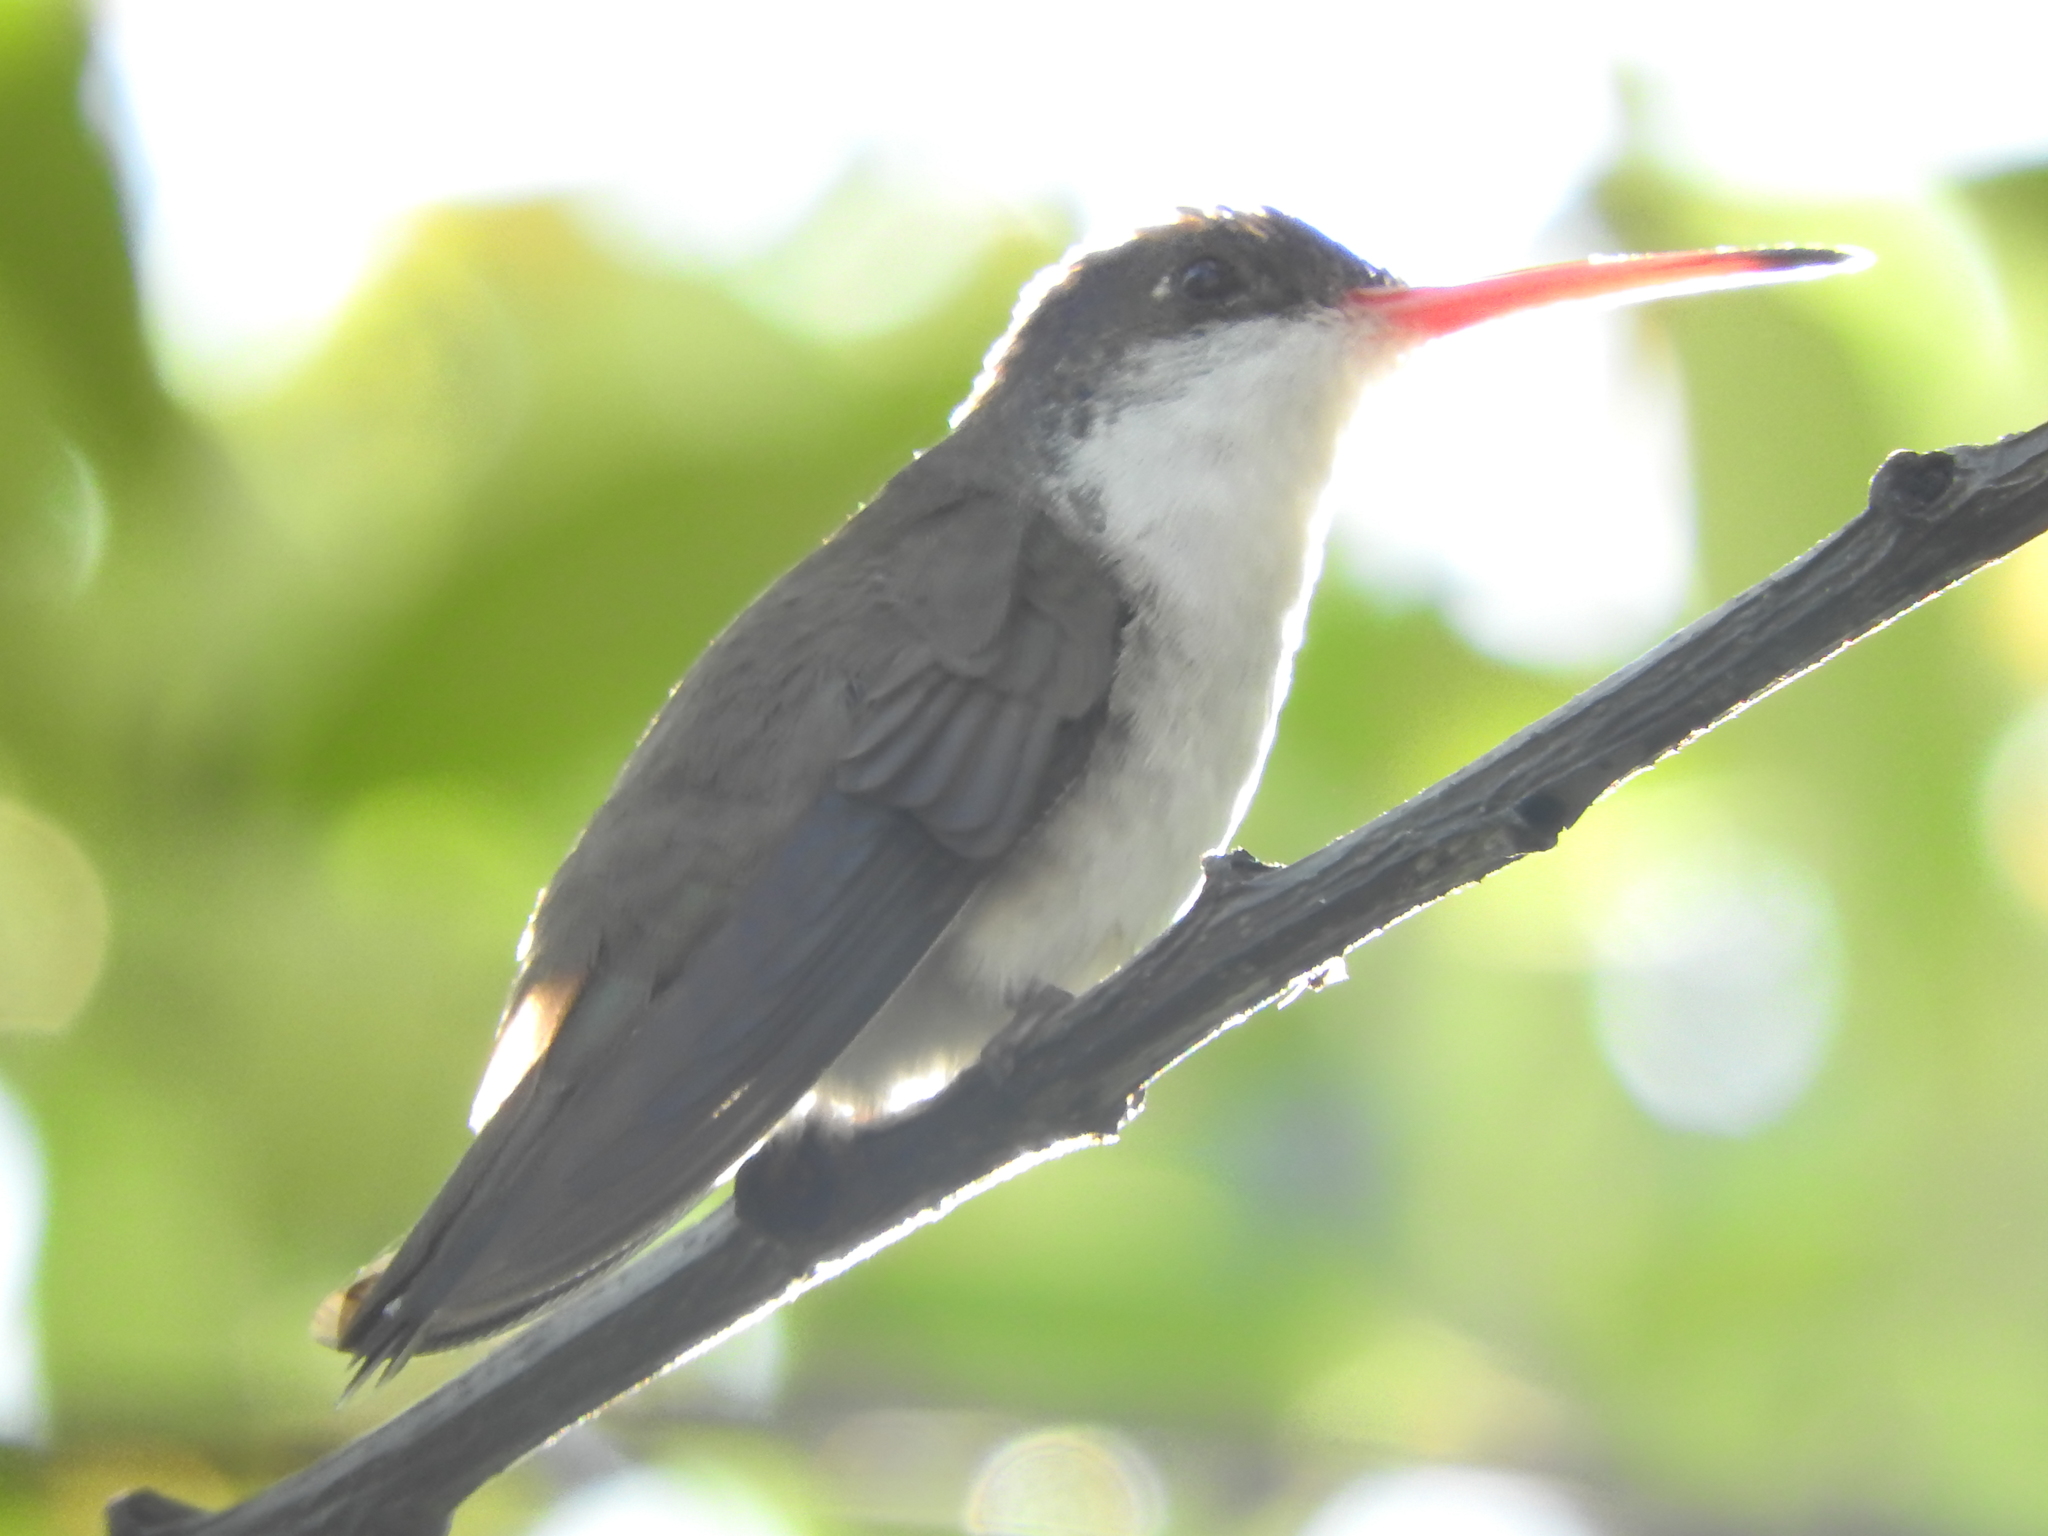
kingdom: Animalia
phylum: Chordata
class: Aves
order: Apodiformes
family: Trochilidae
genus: Leucolia
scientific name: Leucolia violiceps
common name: Violet-crowned hummingbird
